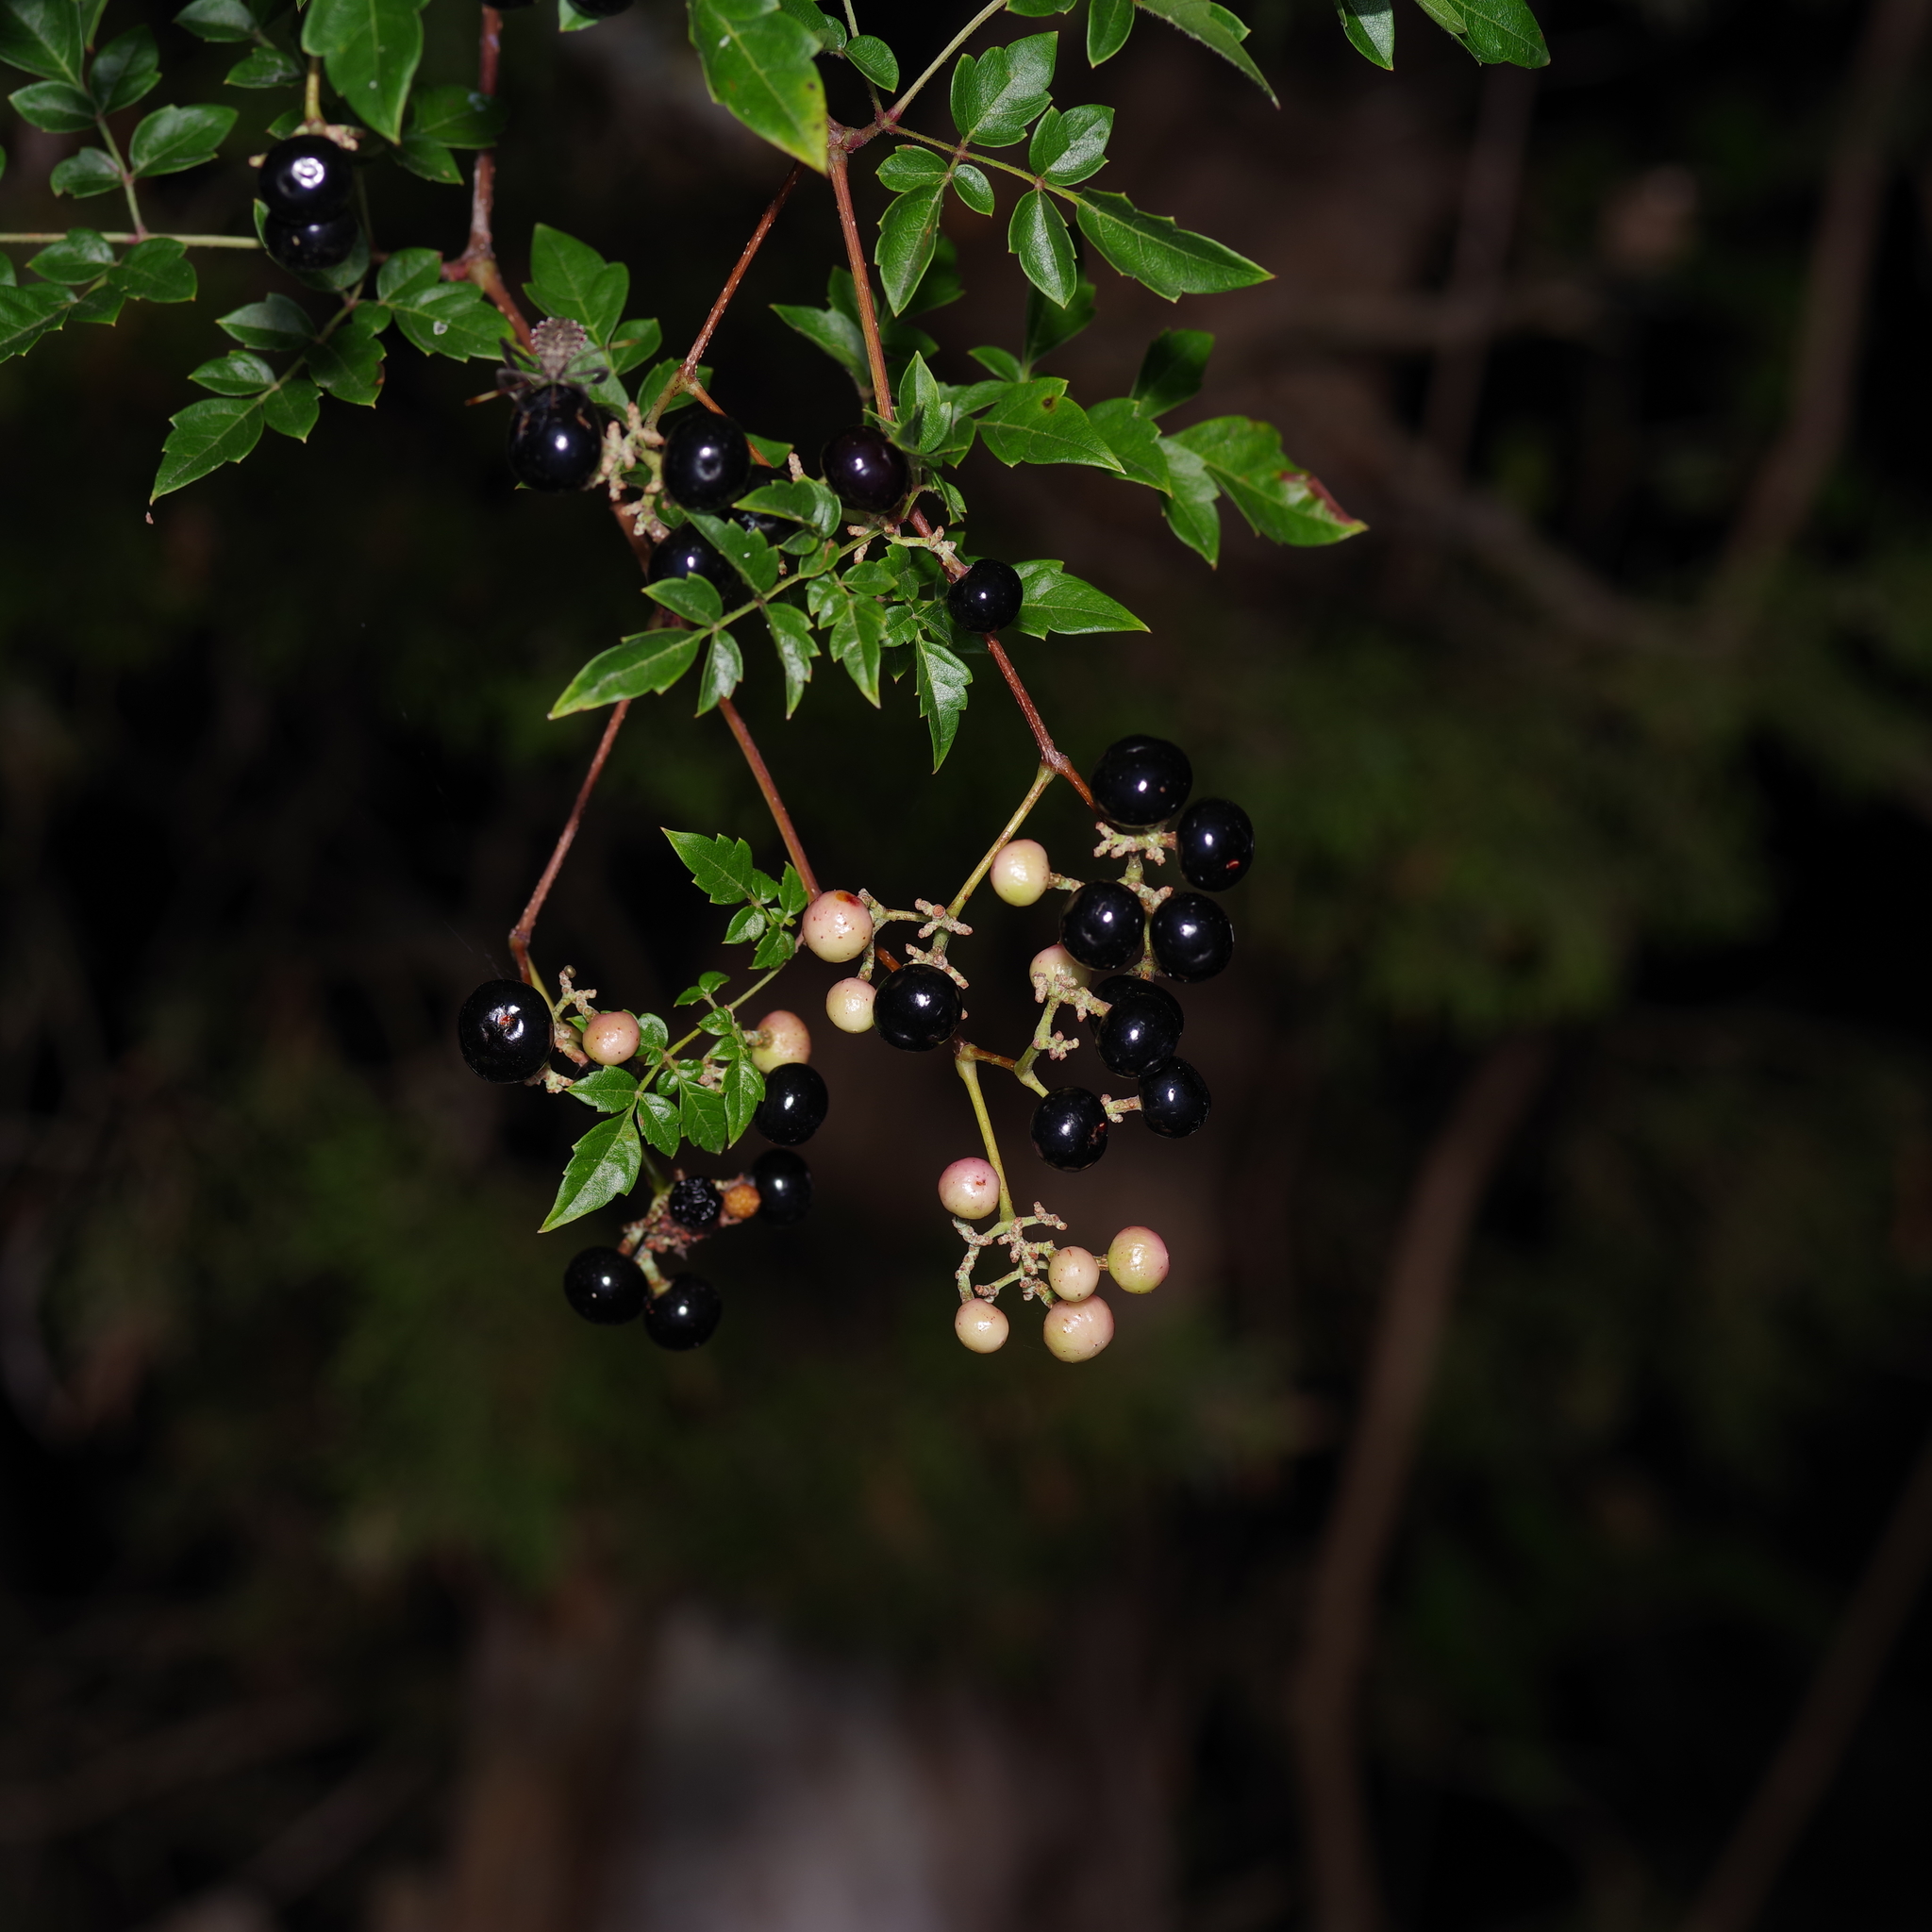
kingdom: Plantae
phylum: Tracheophyta
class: Magnoliopsida
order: Vitales
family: Vitaceae
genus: Nekemias
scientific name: Nekemias arborea
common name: Peppervine
